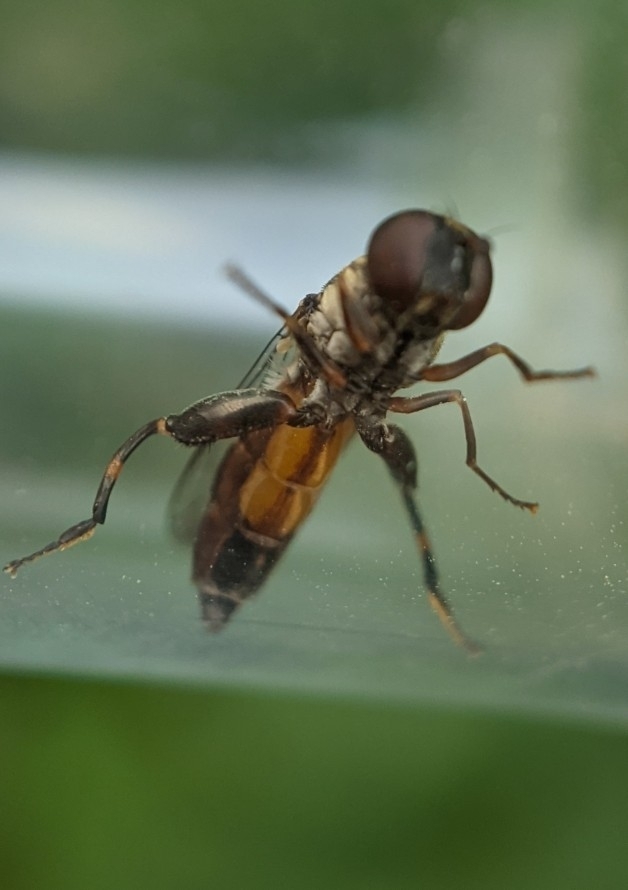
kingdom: Animalia
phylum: Arthropoda
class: Insecta
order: Diptera
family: Syrphidae
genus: Syritta
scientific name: Syritta pipiens
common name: Hover fly
